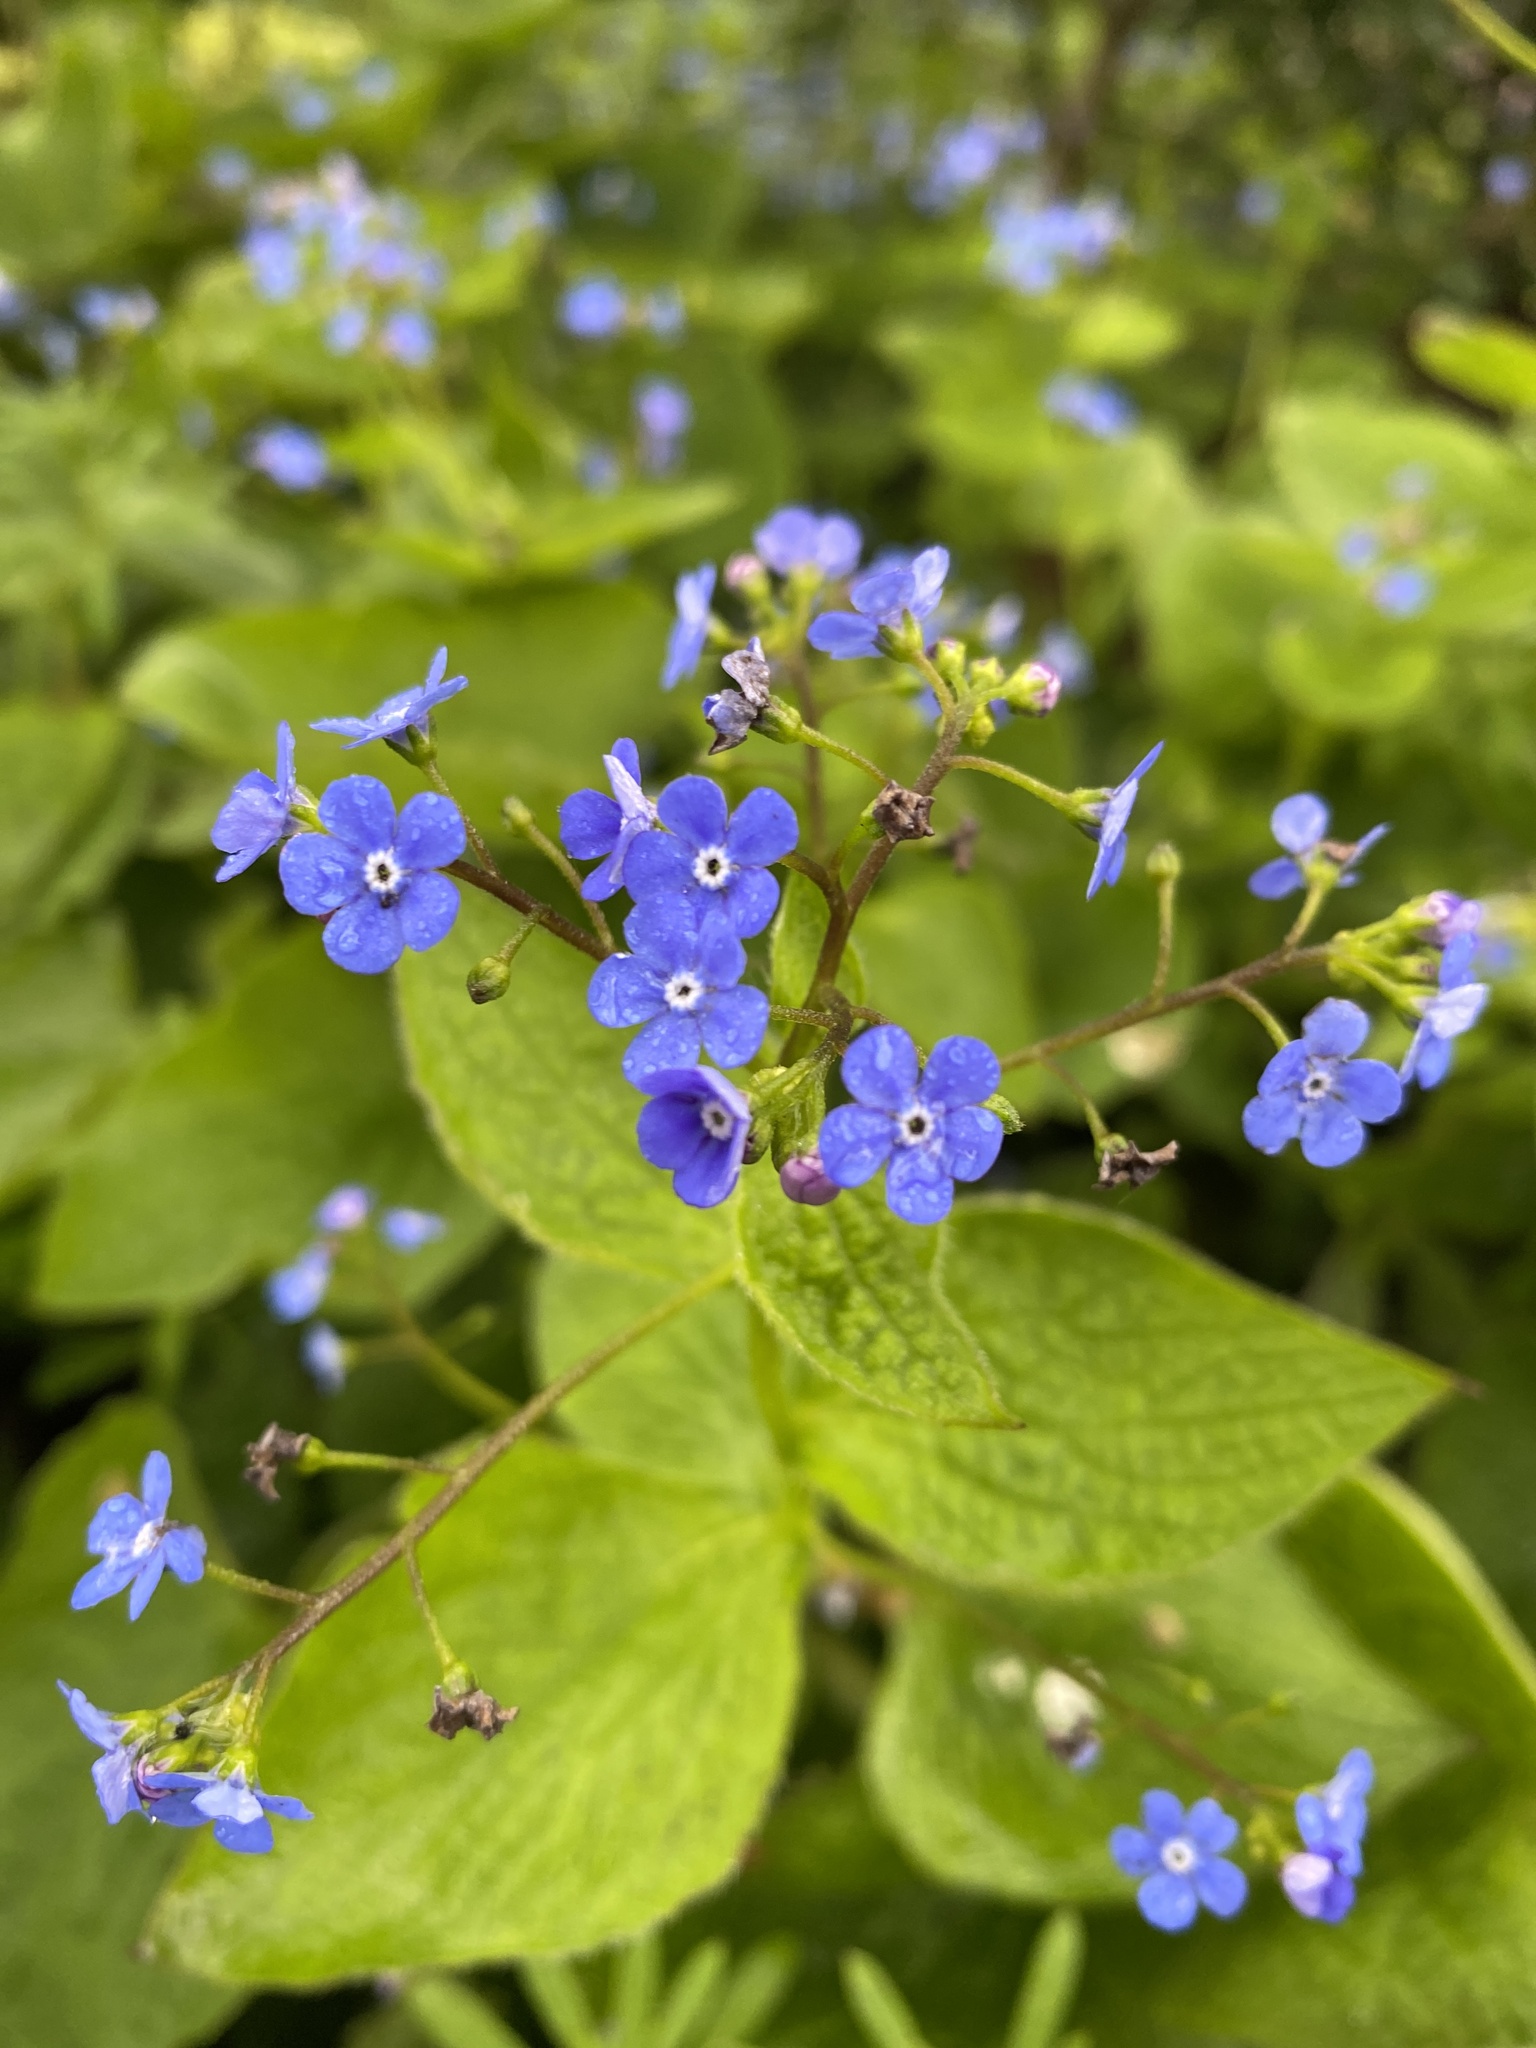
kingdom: Plantae
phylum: Tracheophyta
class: Magnoliopsida
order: Boraginales
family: Boraginaceae
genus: Brunnera
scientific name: Brunnera macrophylla
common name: Great forget-me-not
